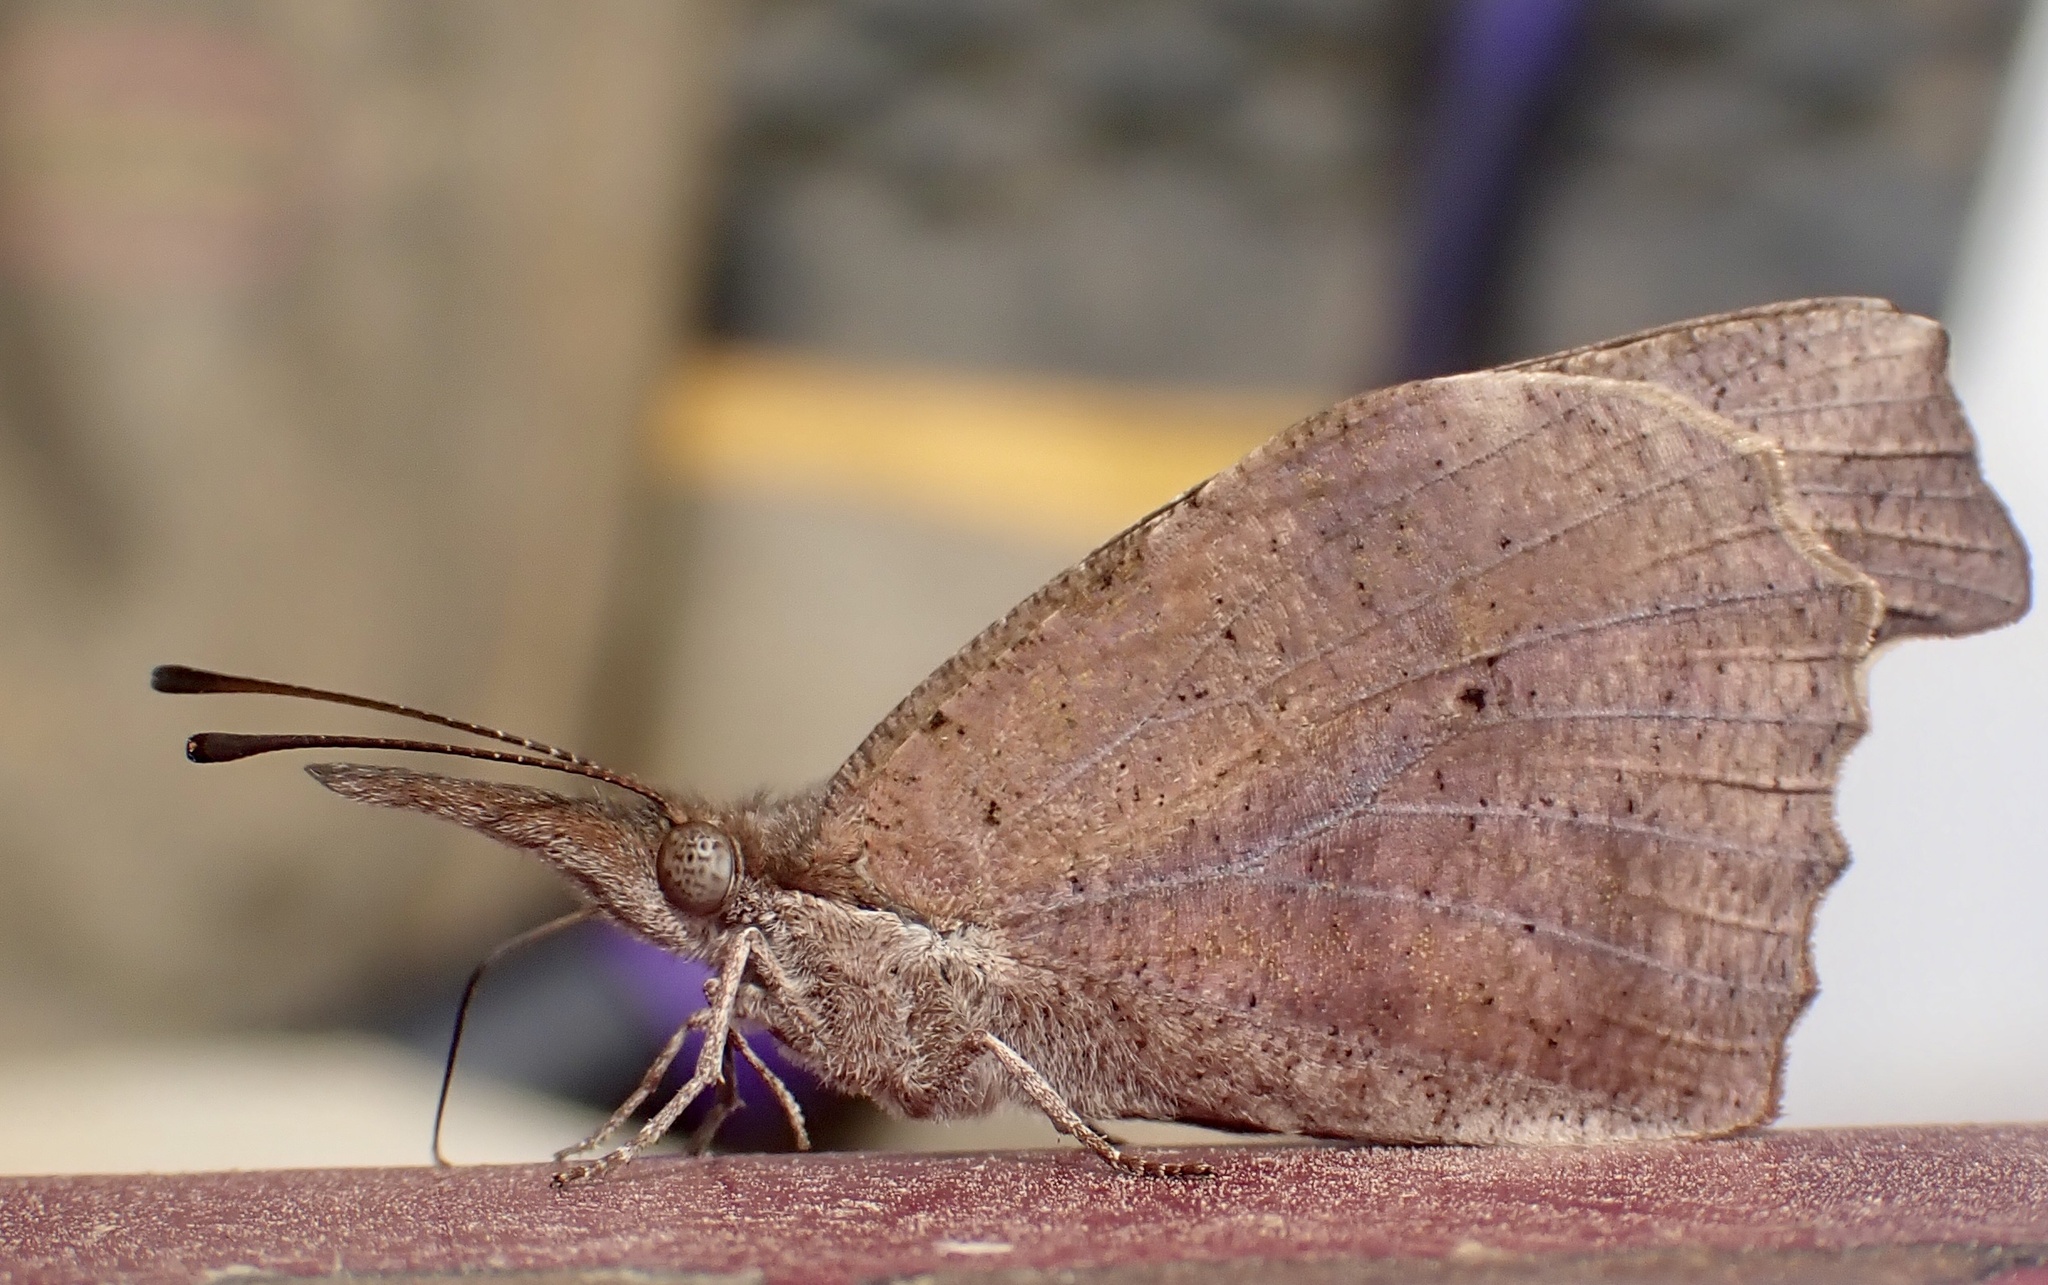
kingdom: Animalia
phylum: Arthropoda
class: Insecta
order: Lepidoptera
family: Nymphalidae
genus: Libytheana
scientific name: Libytheana carinenta
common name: American snout
